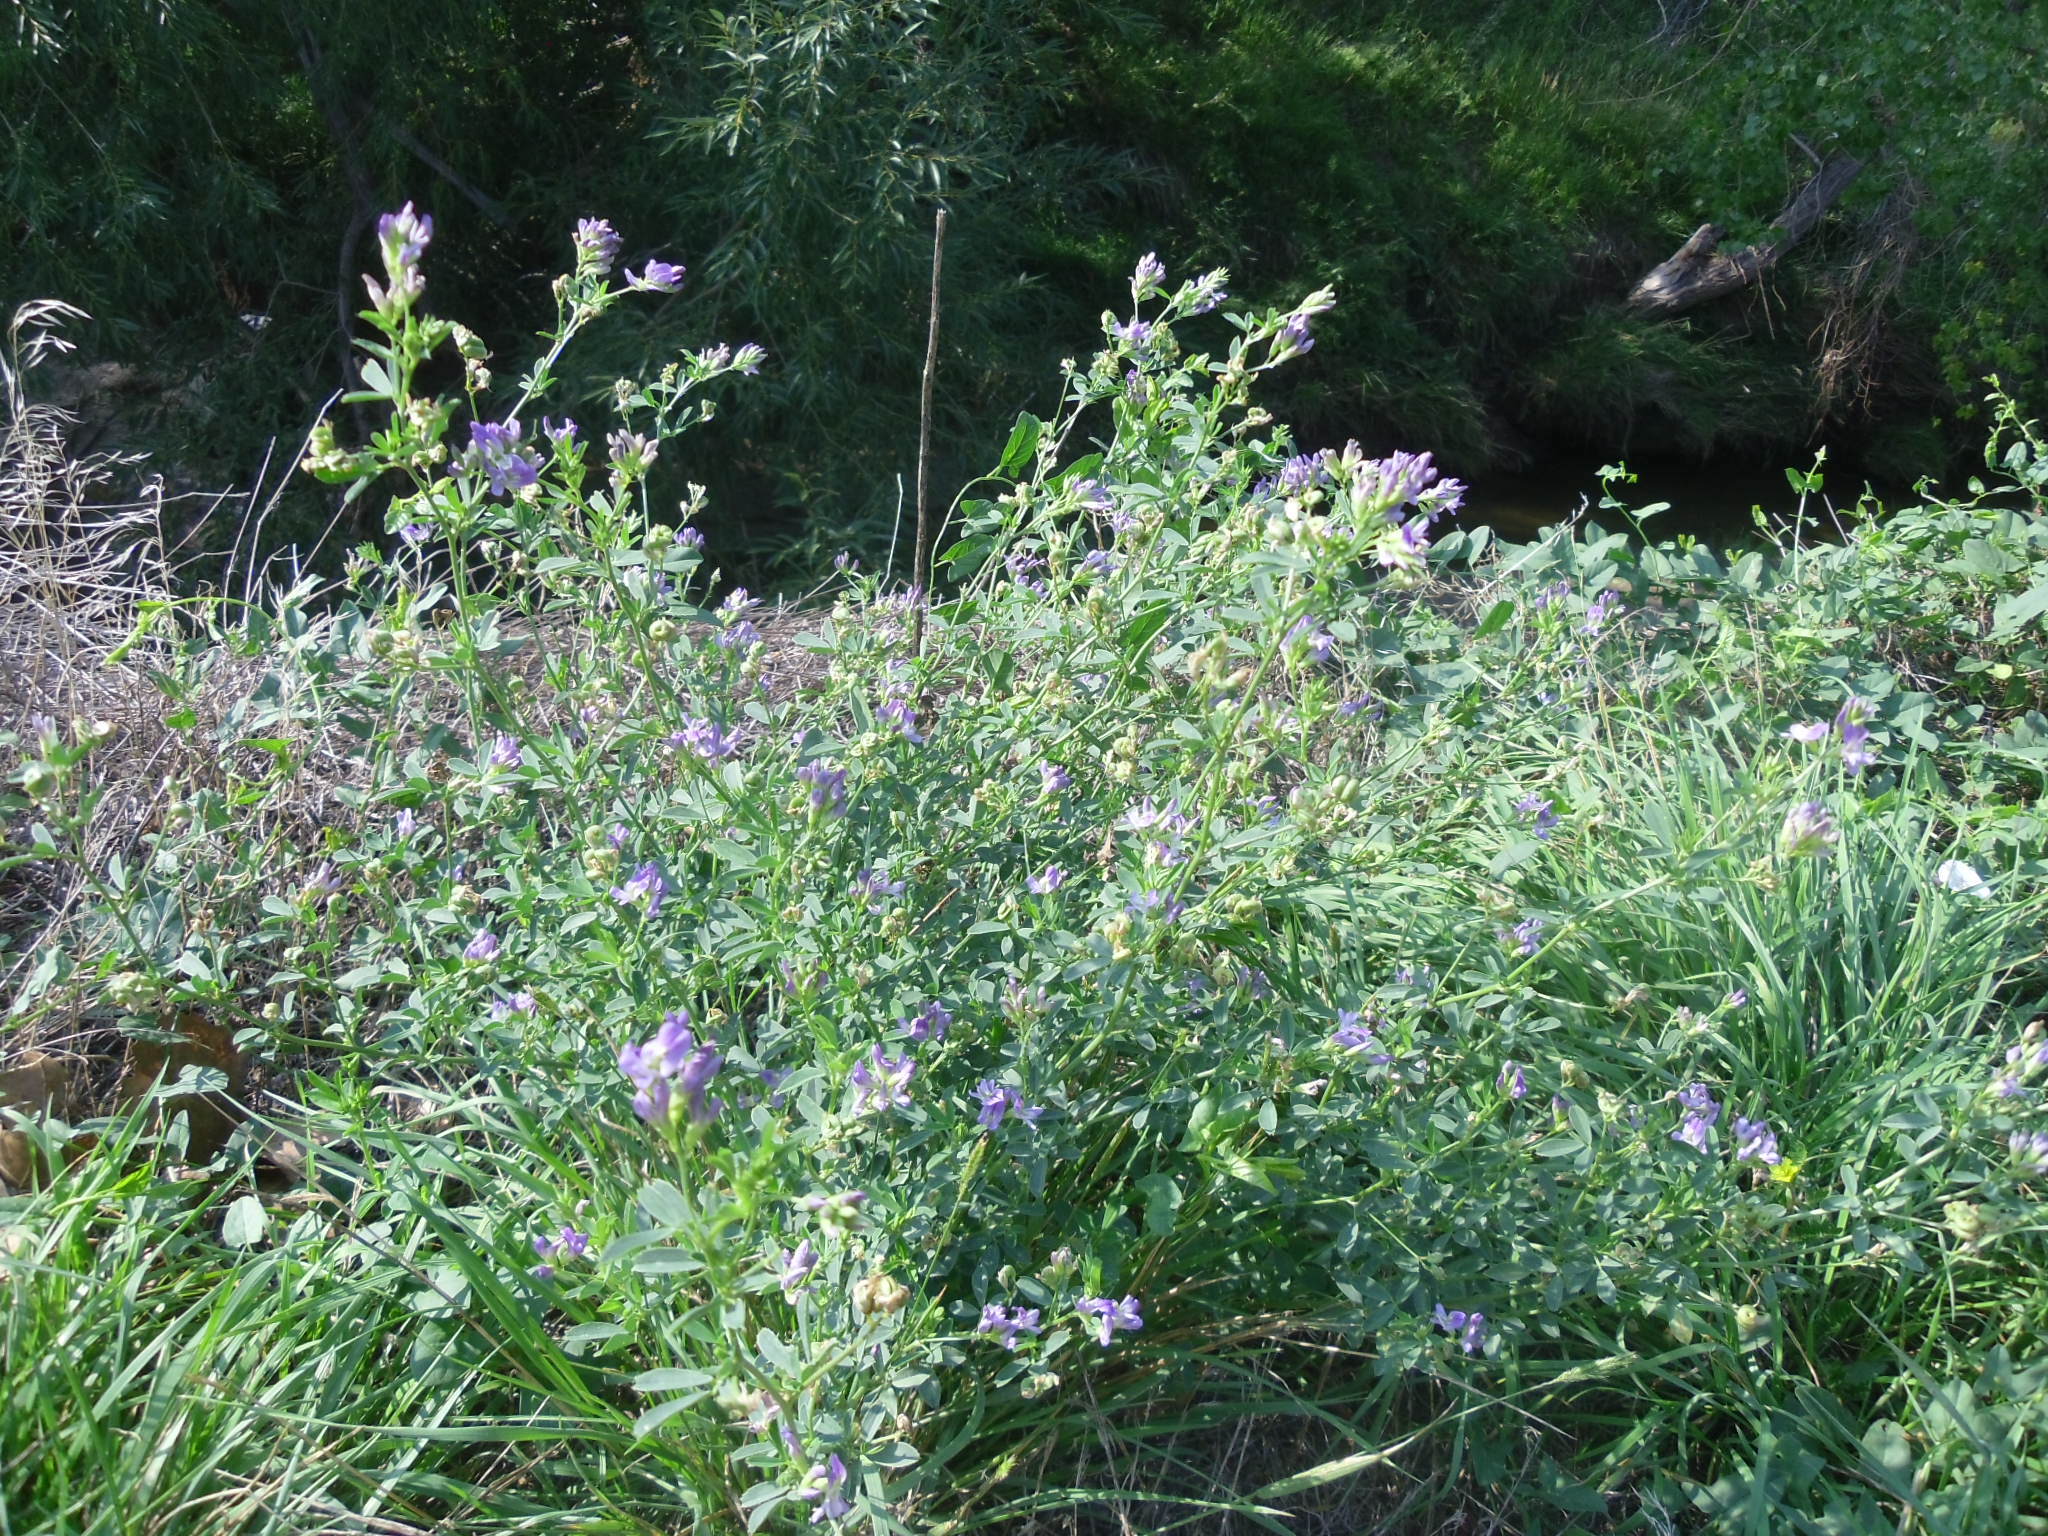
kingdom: Plantae
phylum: Tracheophyta
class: Magnoliopsida
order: Fabales
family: Fabaceae
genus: Medicago
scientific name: Medicago sativa
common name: Alfalfa
